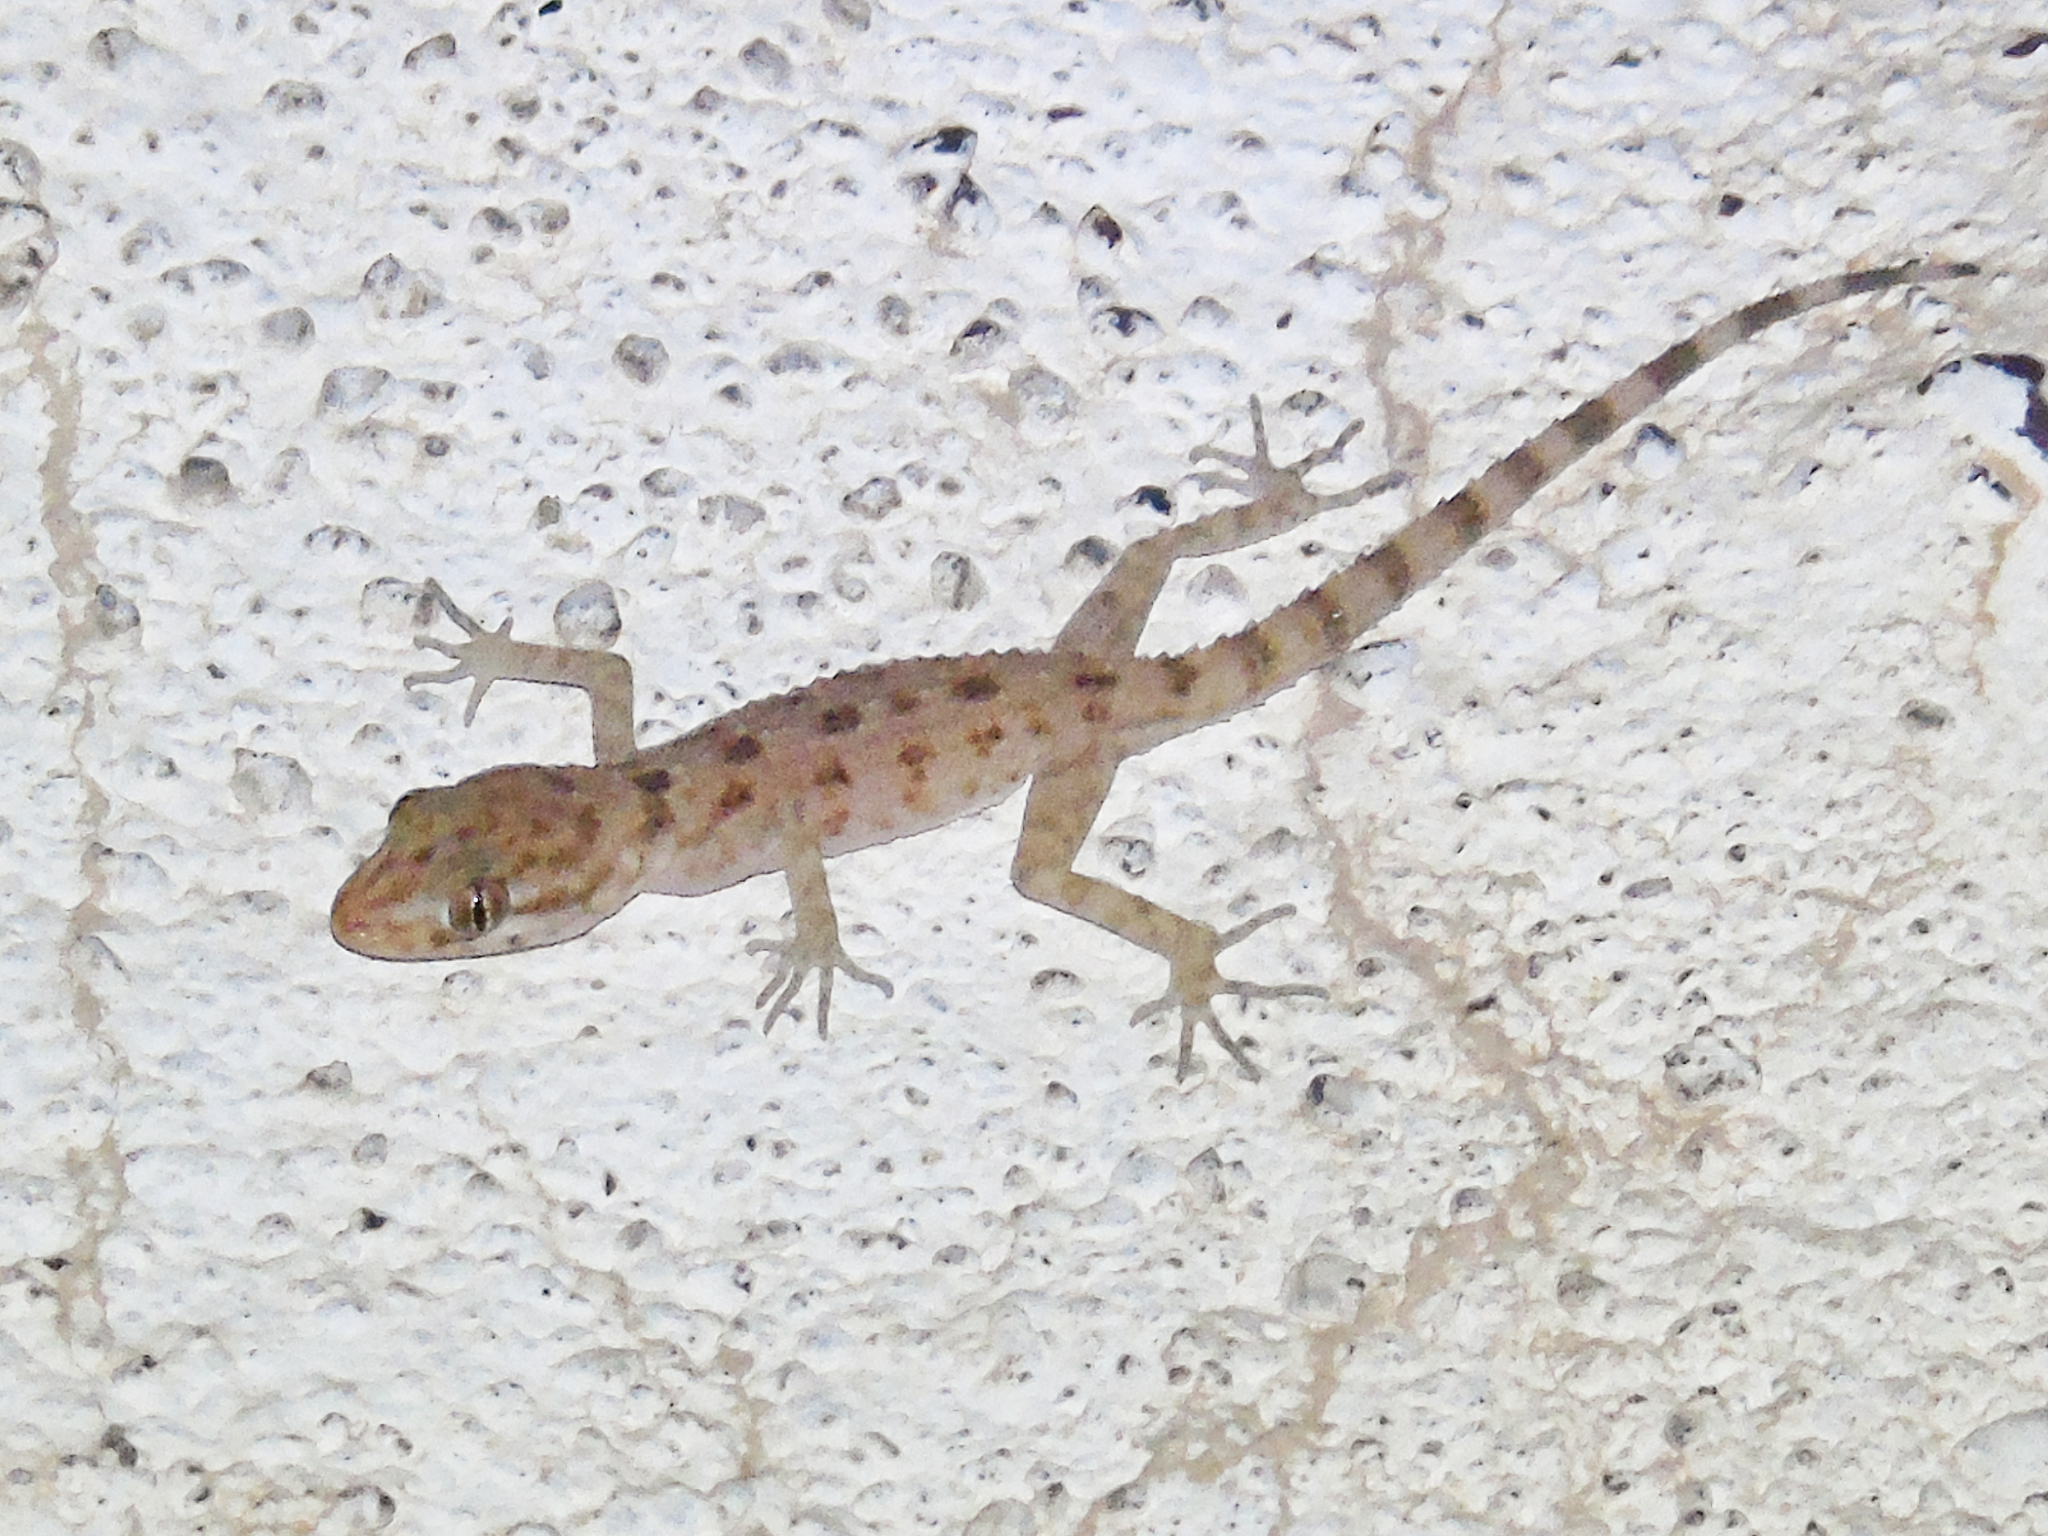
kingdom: Animalia
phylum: Chordata
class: Squamata
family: Gekkonidae
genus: Cyrtopodion
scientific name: Cyrtopodion scabrum
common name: Rough-tailed gecko
